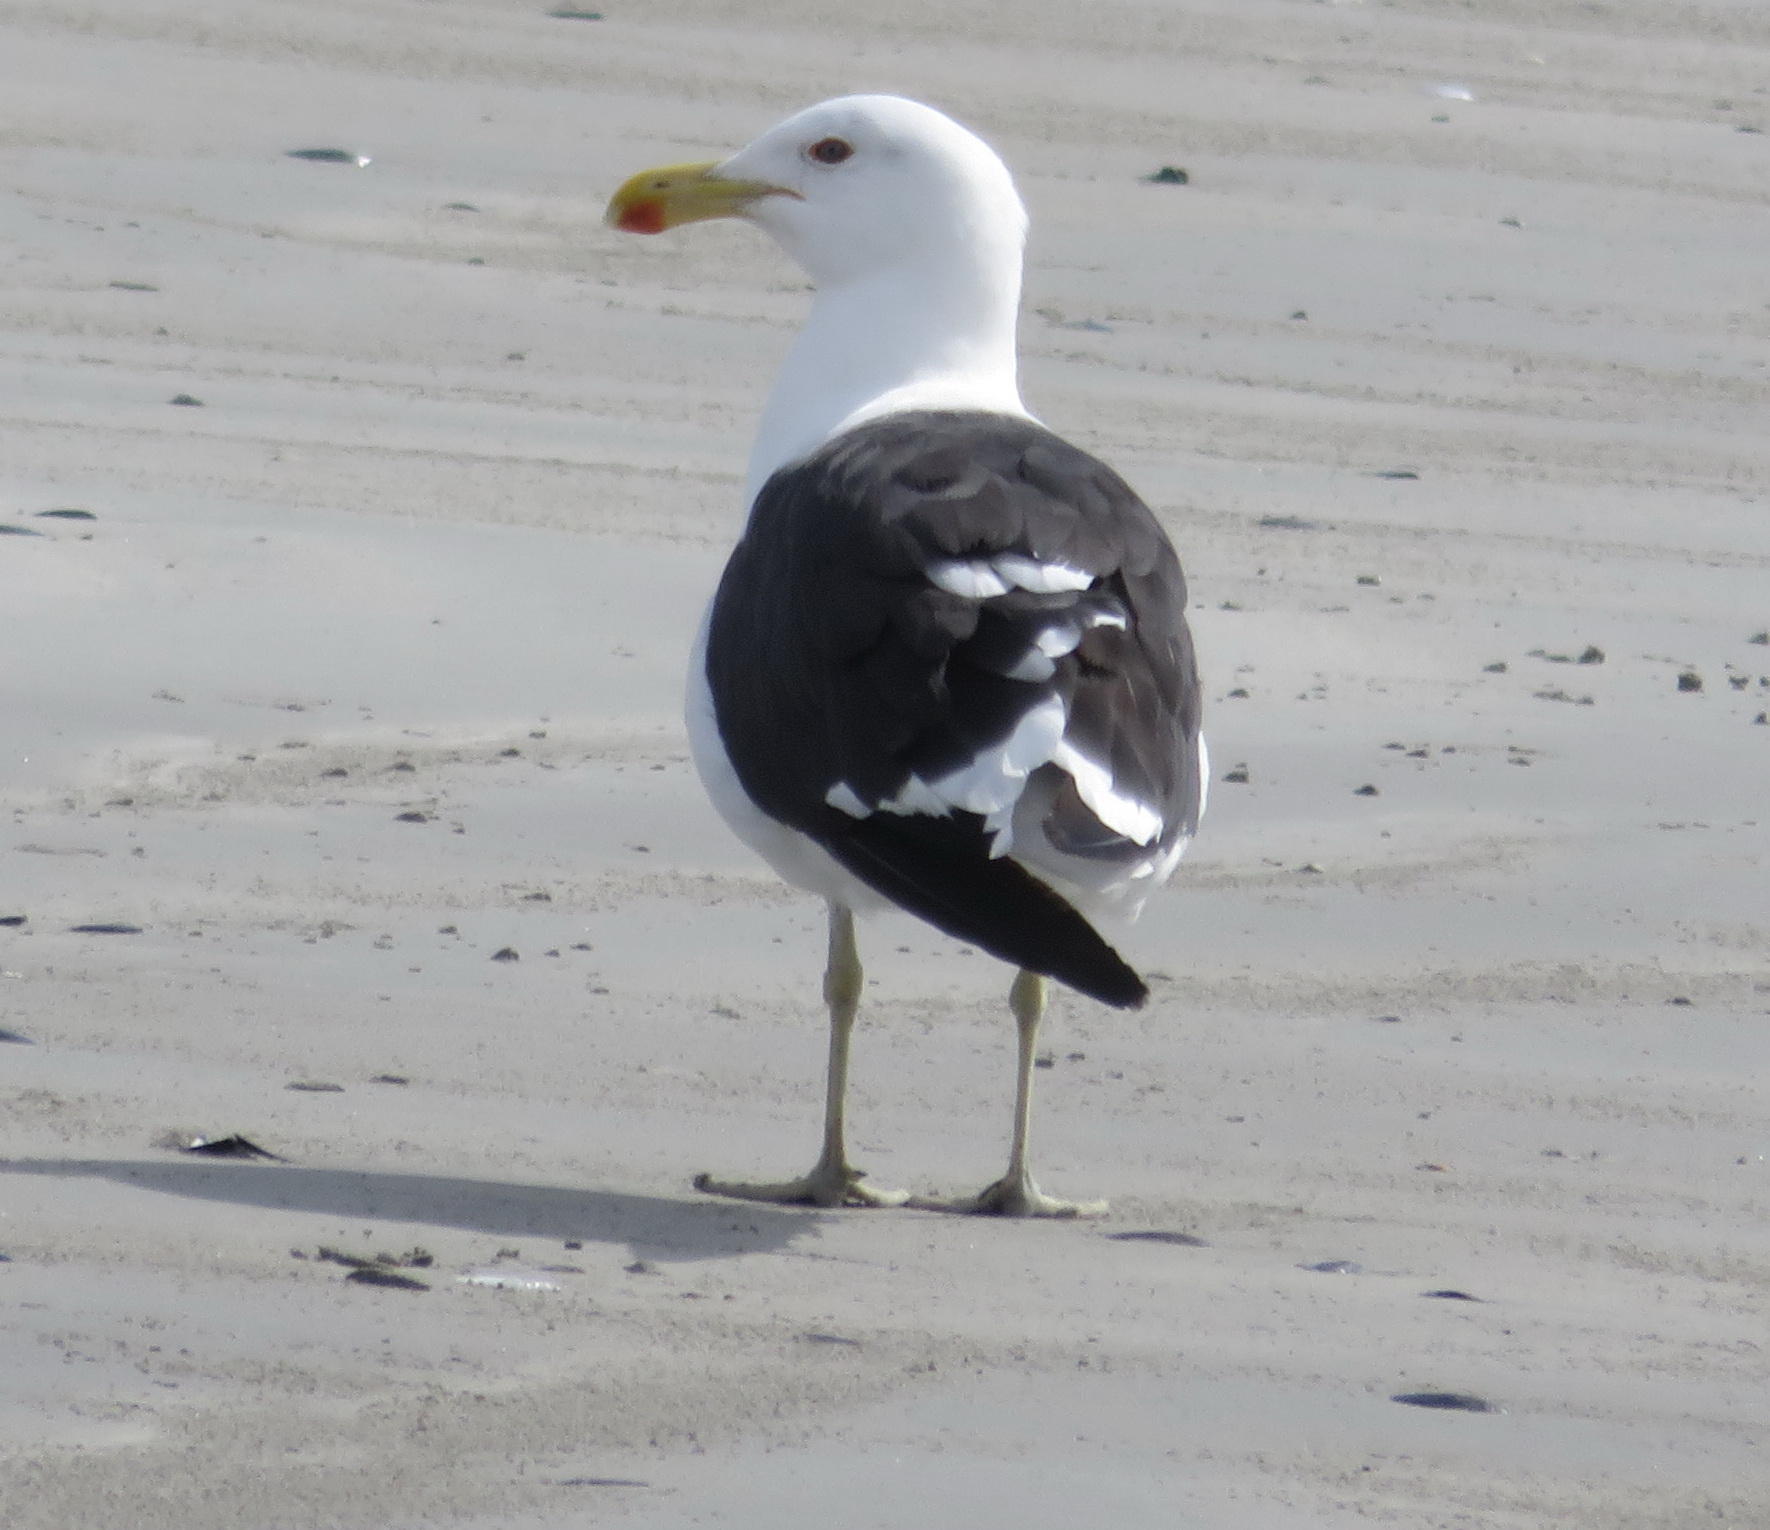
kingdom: Animalia
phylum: Chordata
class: Aves
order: Charadriiformes
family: Laridae
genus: Larus
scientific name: Larus dominicanus
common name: Kelp gull
